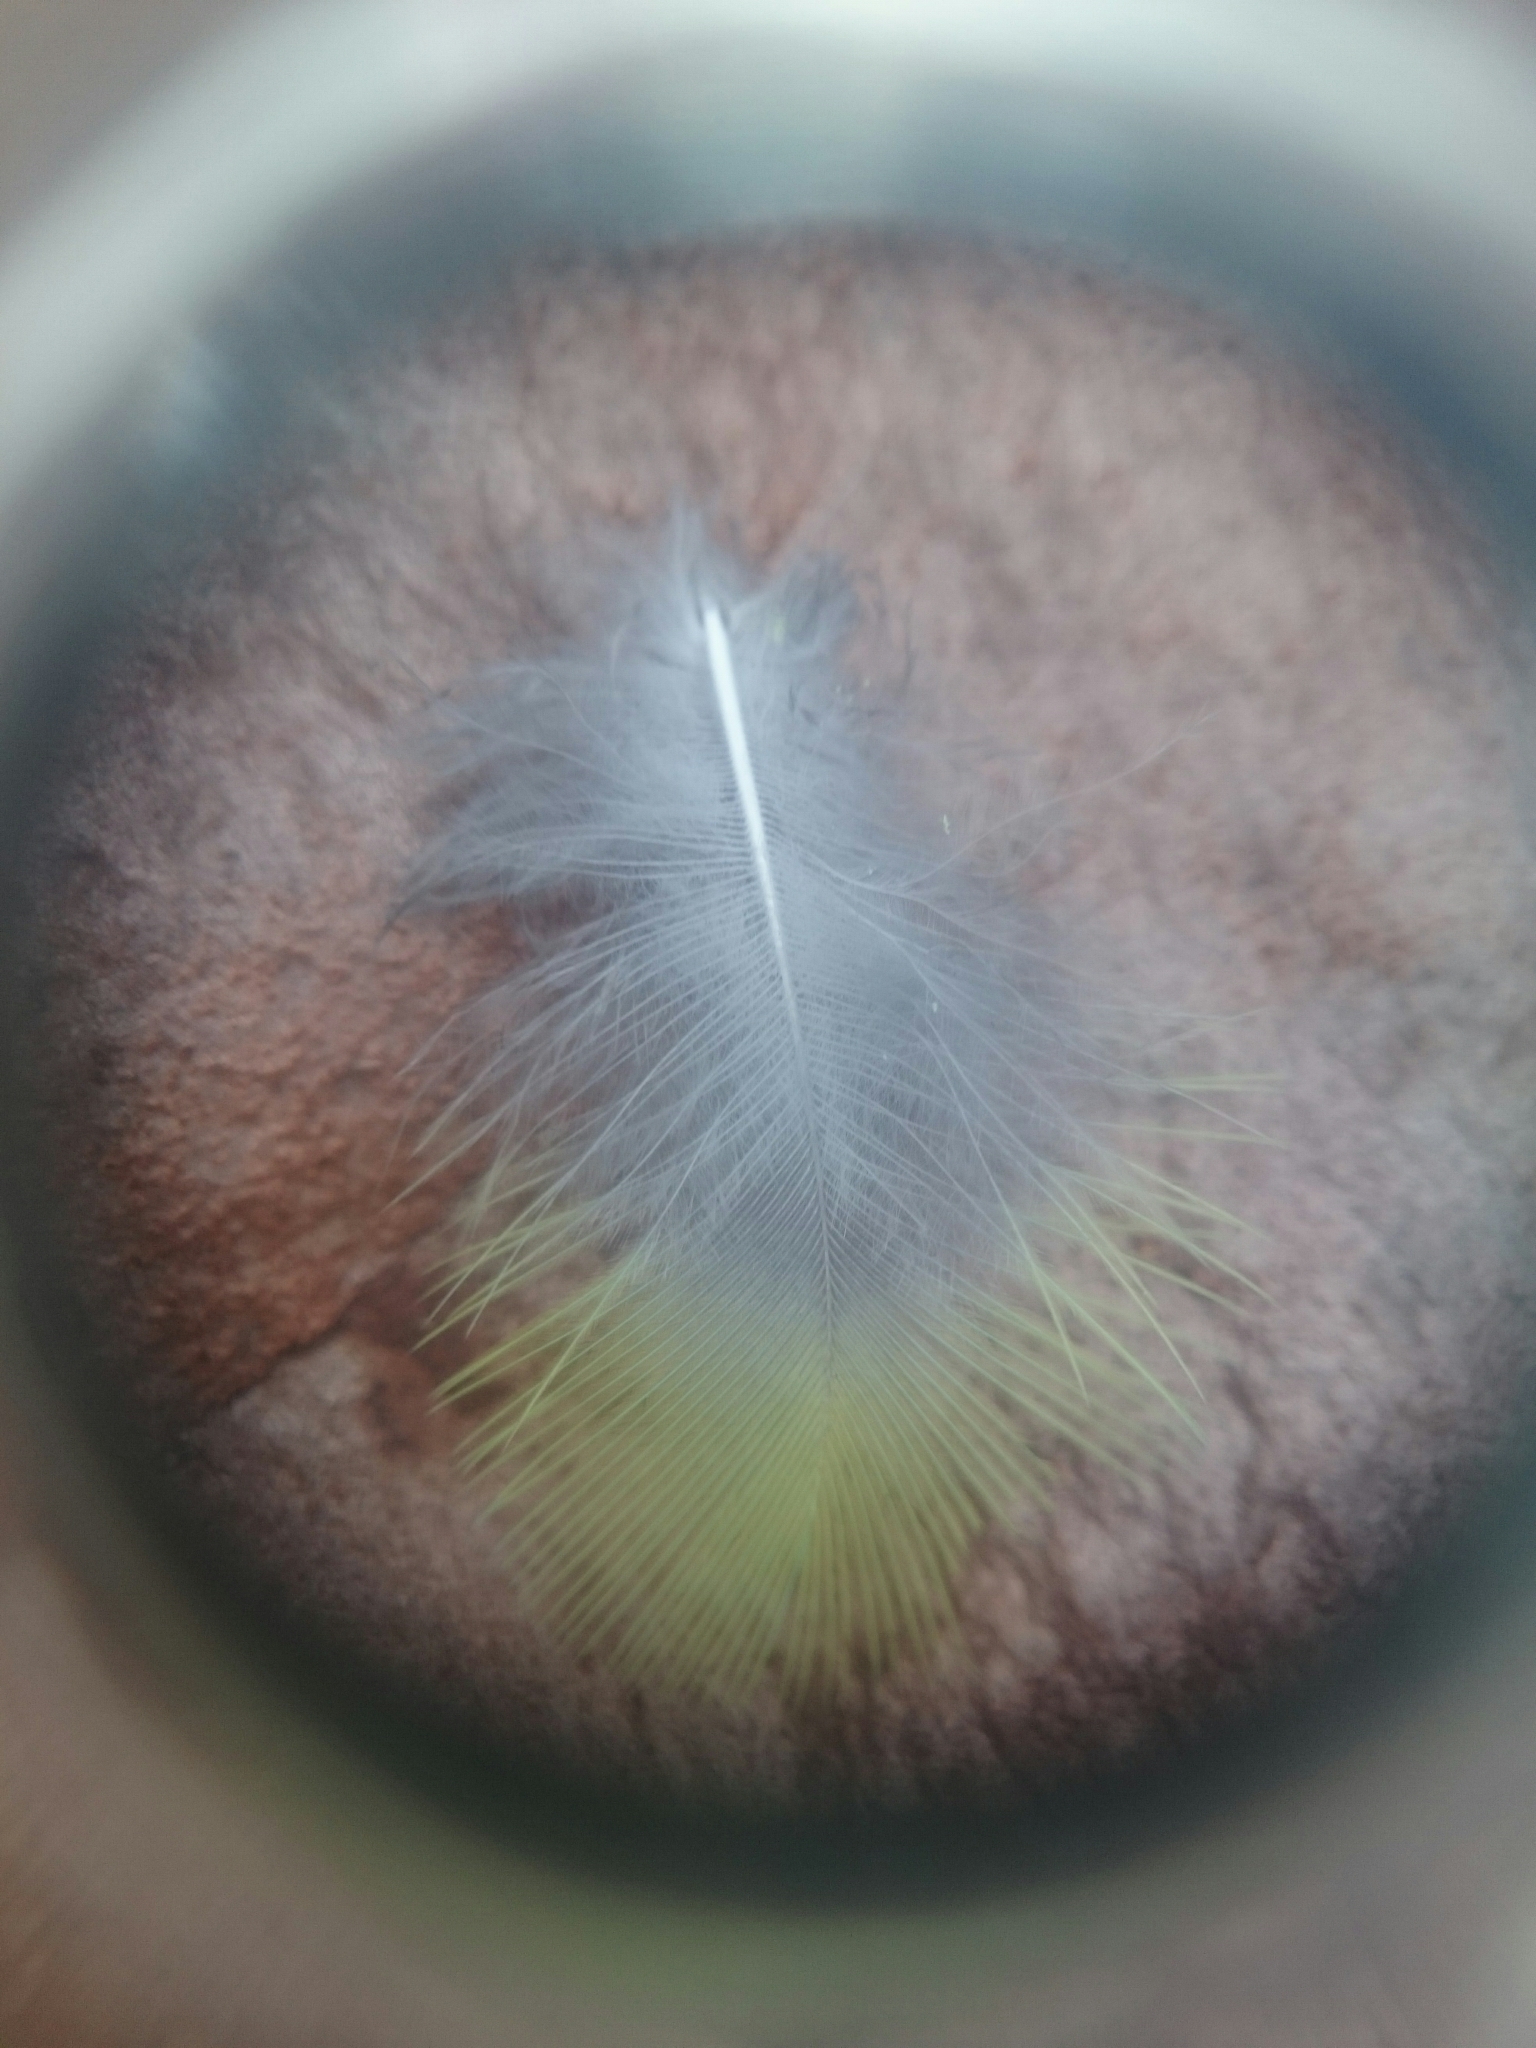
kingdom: Animalia
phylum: Chordata
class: Aves
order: Psittaciformes
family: Psittacidae
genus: Platycercus
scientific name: Platycercus eximius
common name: Eastern rosella
